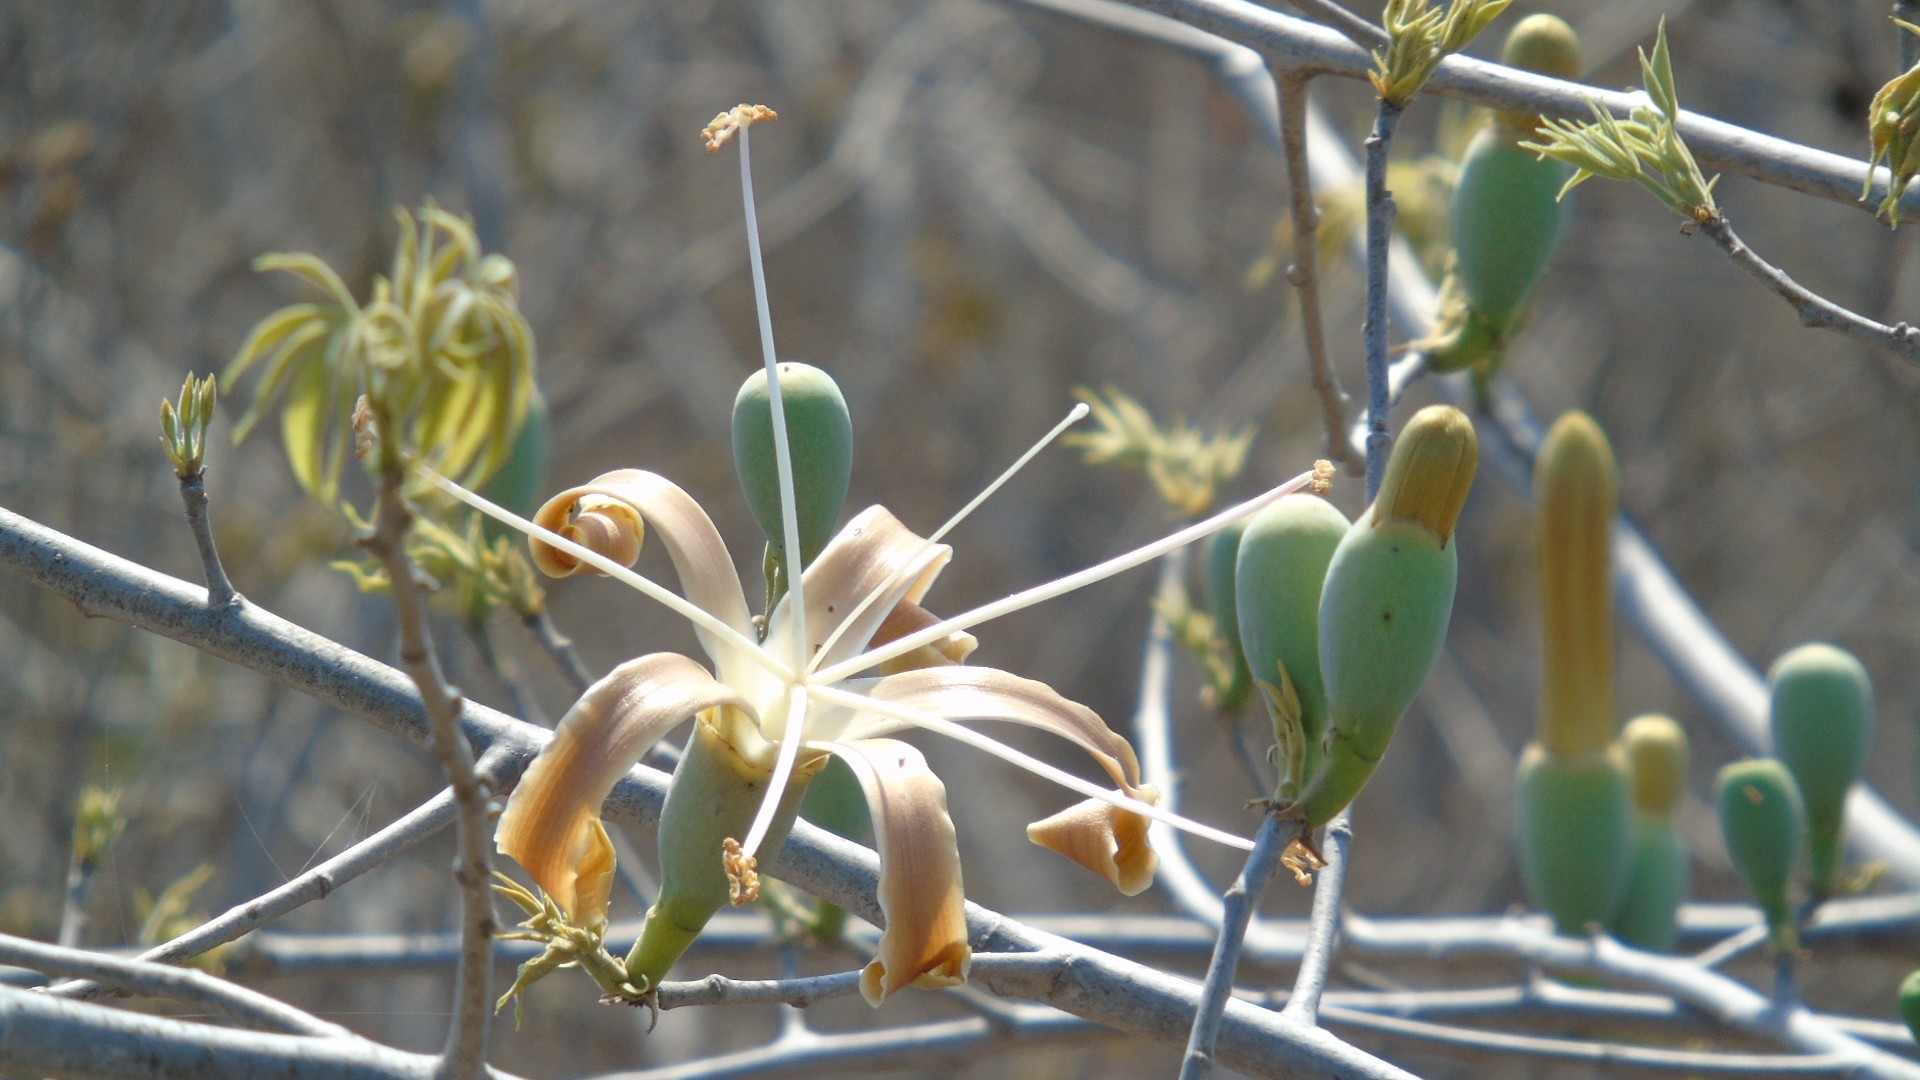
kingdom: Plantae
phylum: Tracheophyta
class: Magnoliopsida
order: Malvales
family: Malvaceae
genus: Ceiba
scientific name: Ceiba aesculifolia
